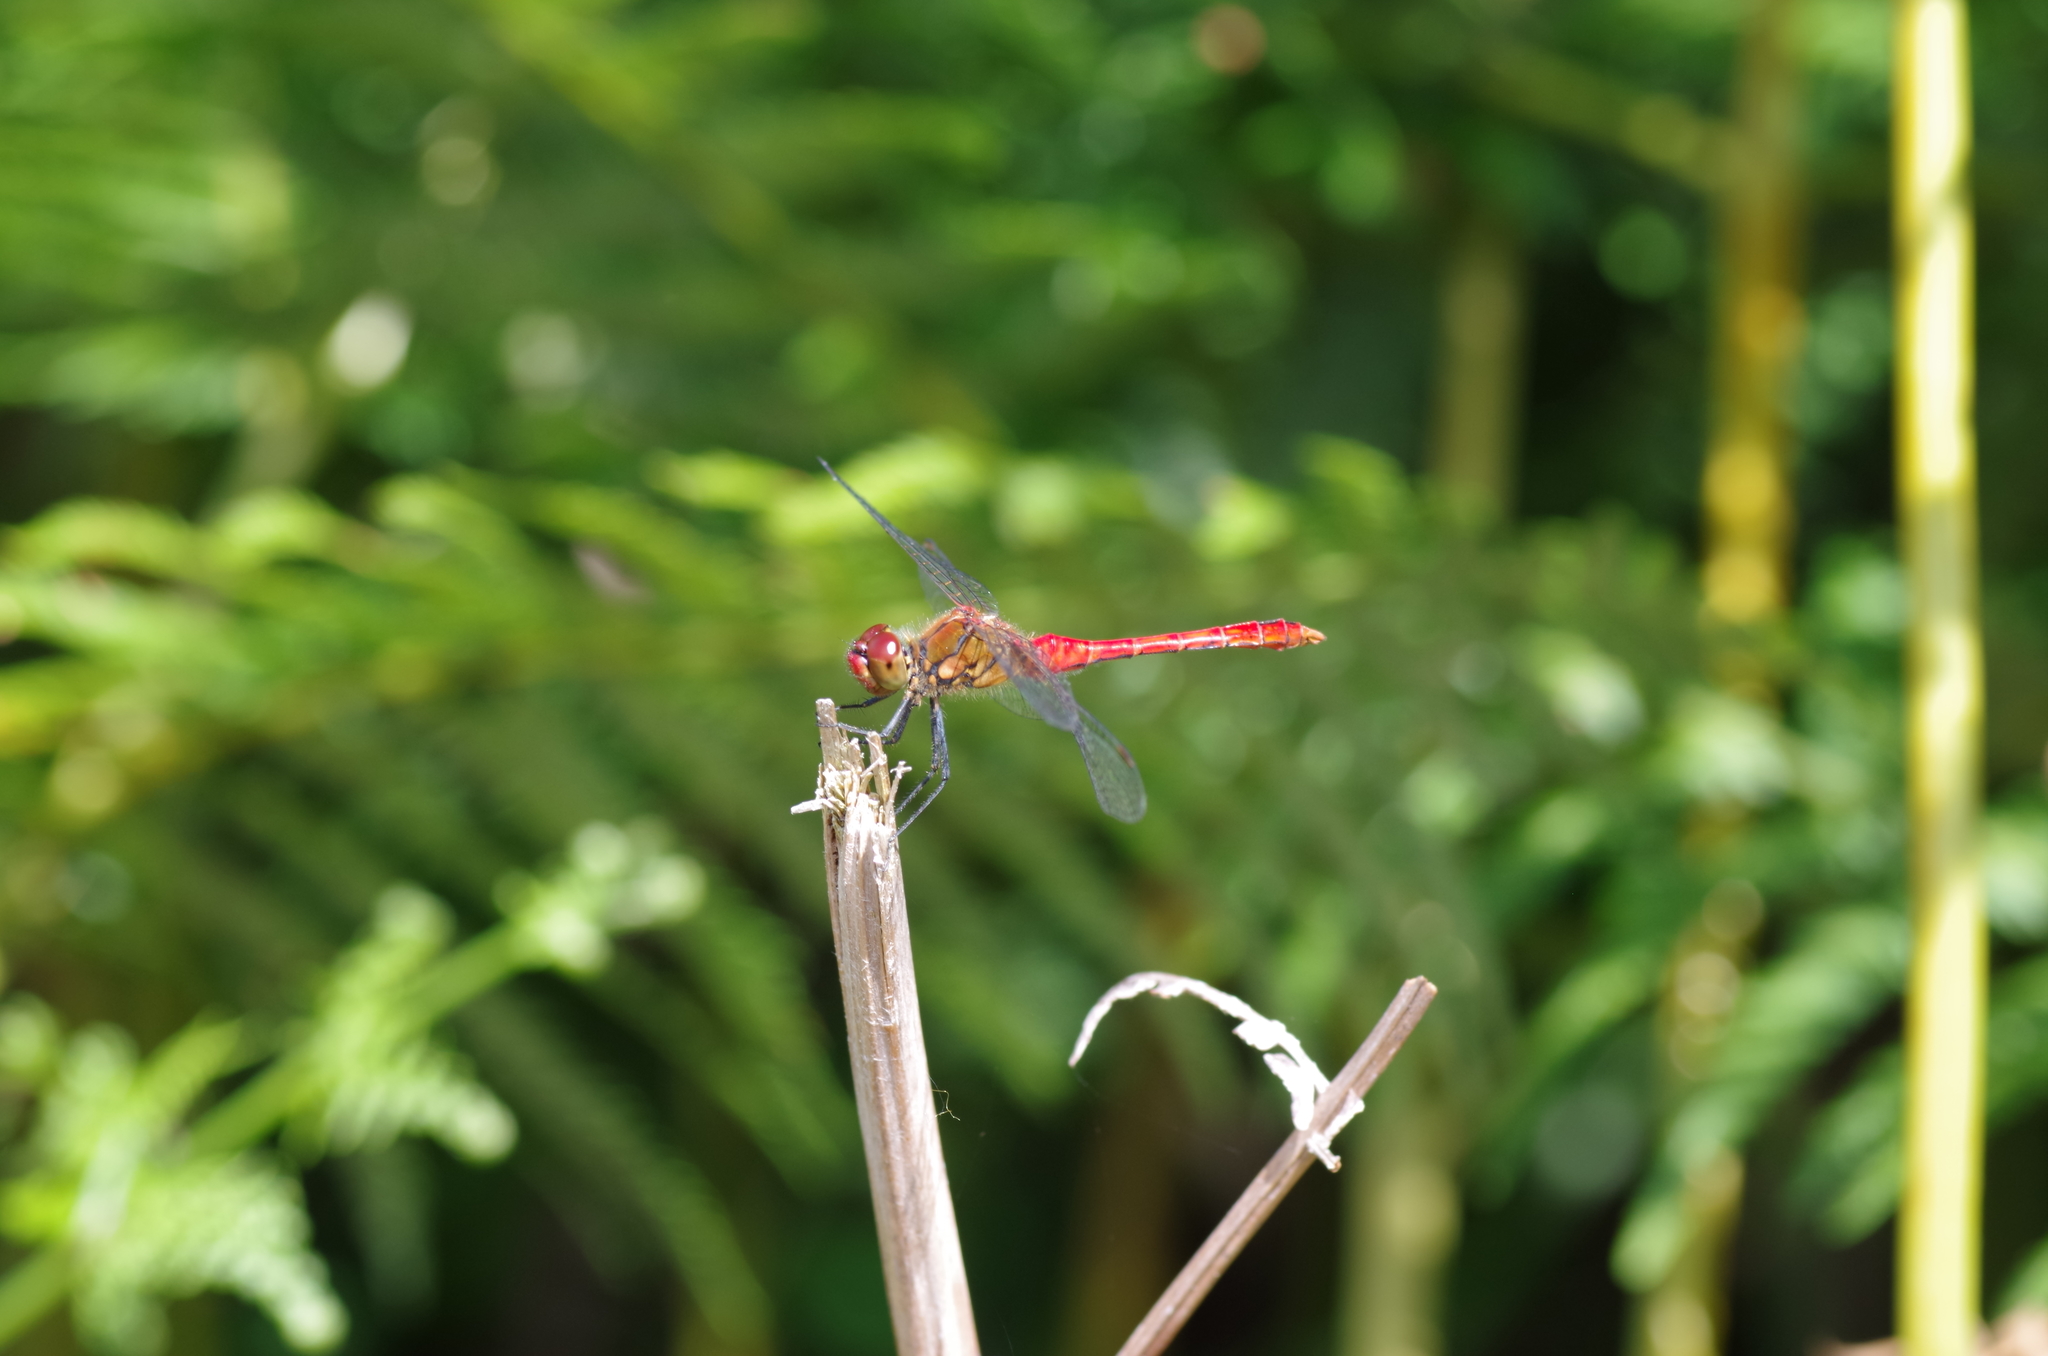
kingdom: Animalia
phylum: Arthropoda
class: Insecta
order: Odonata
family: Libellulidae
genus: Sympetrum
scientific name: Sympetrum sanguineum
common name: Ruddy darter
